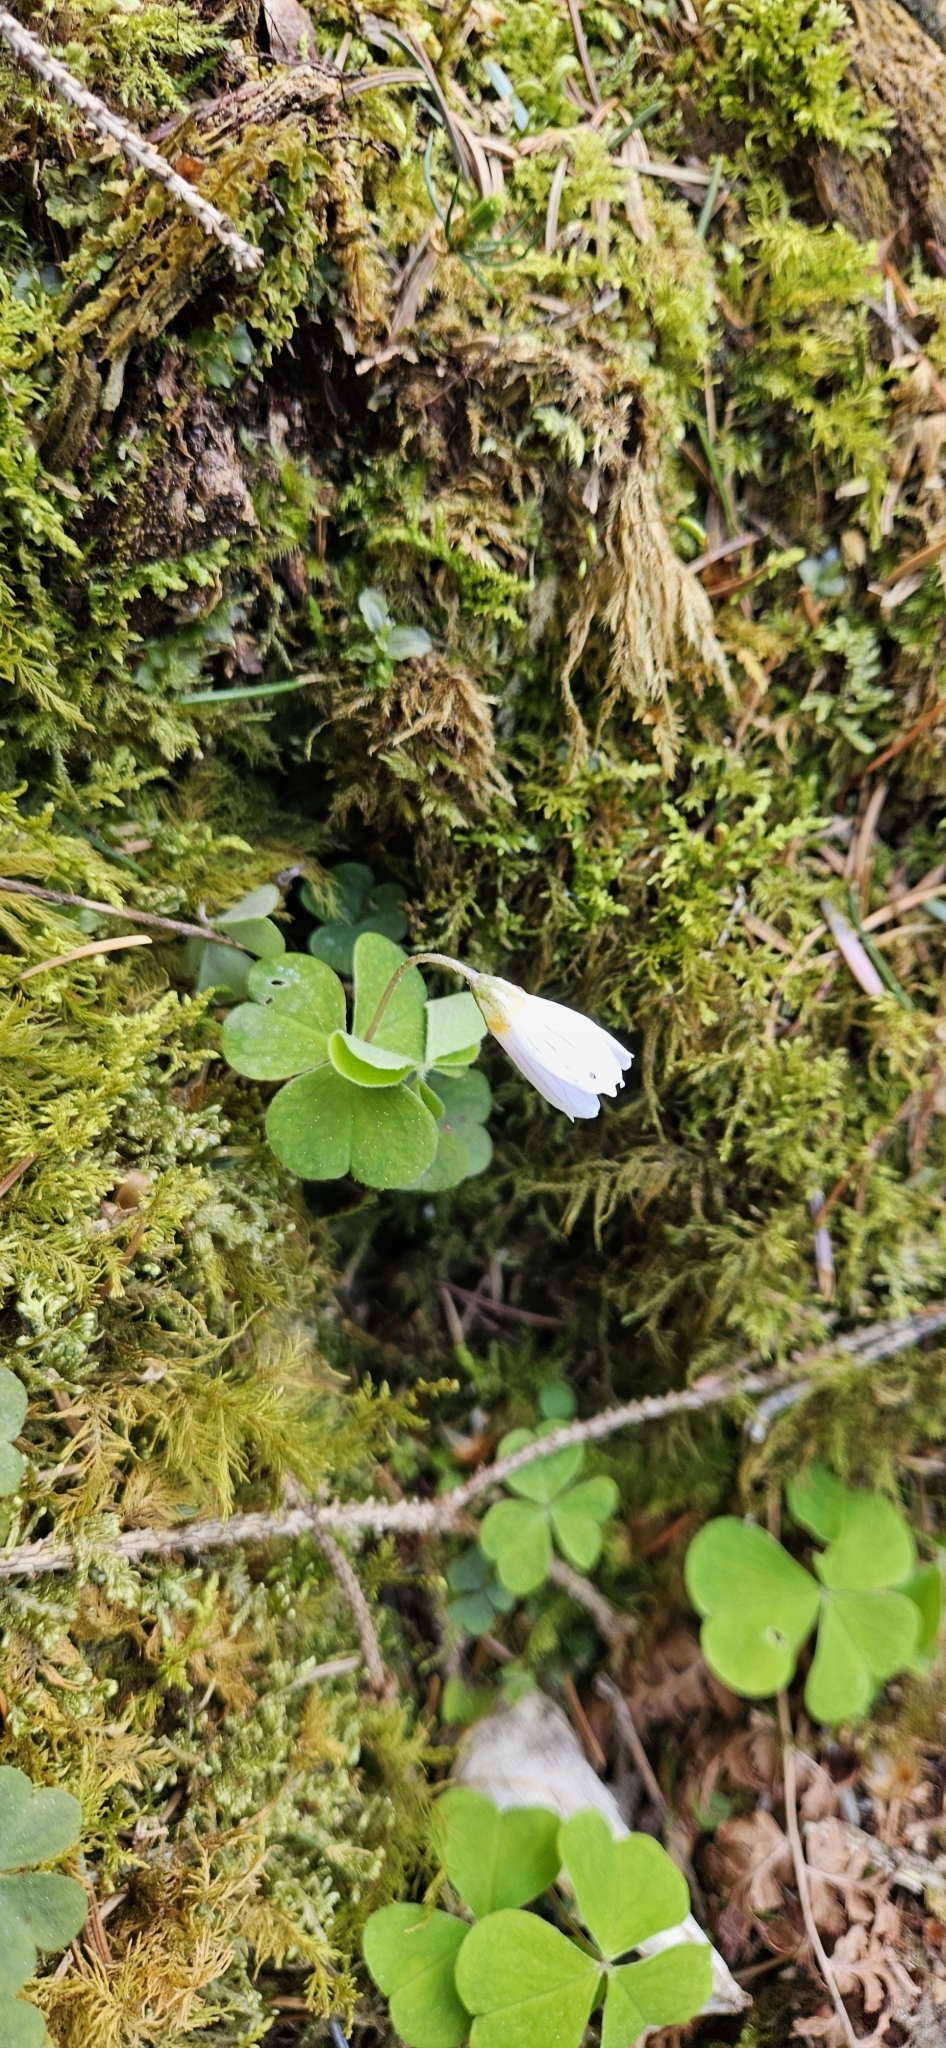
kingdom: Plantae
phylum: Tracheophyta
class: Magnoliopsida
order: Oxalidales
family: Oxalidaceae
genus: Oxalis
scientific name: Oxalis acetosella
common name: Wood-sorrel
